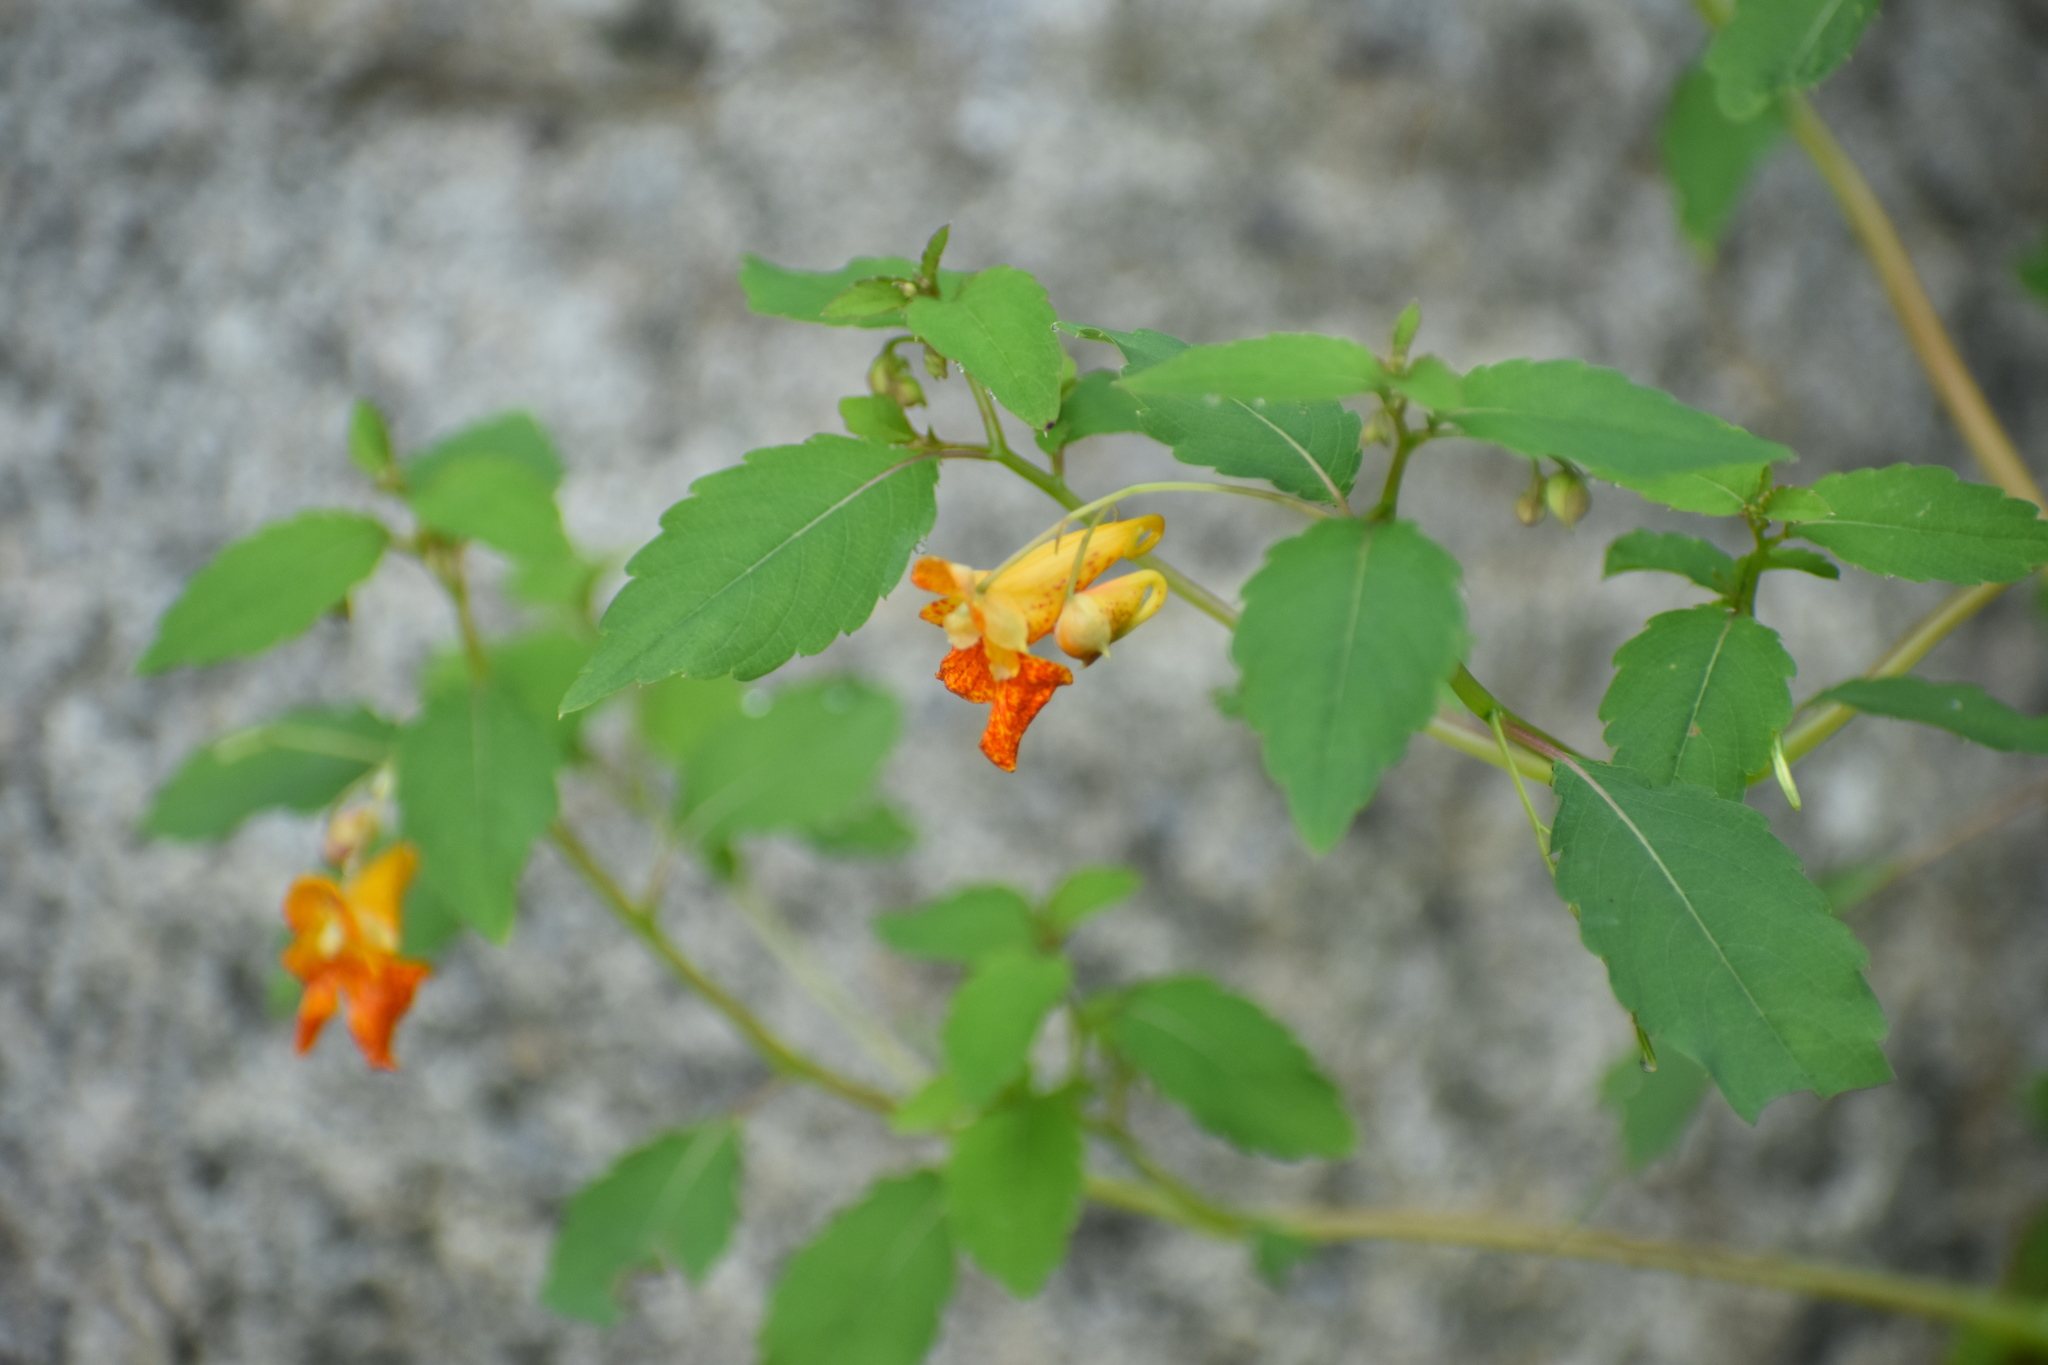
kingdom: Plantae
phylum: Tracheophyta
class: Magnoliopsida
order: Ericales
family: Balsaminaceae
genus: Impatiens
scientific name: Impatiens capensis
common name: Orange balsam
